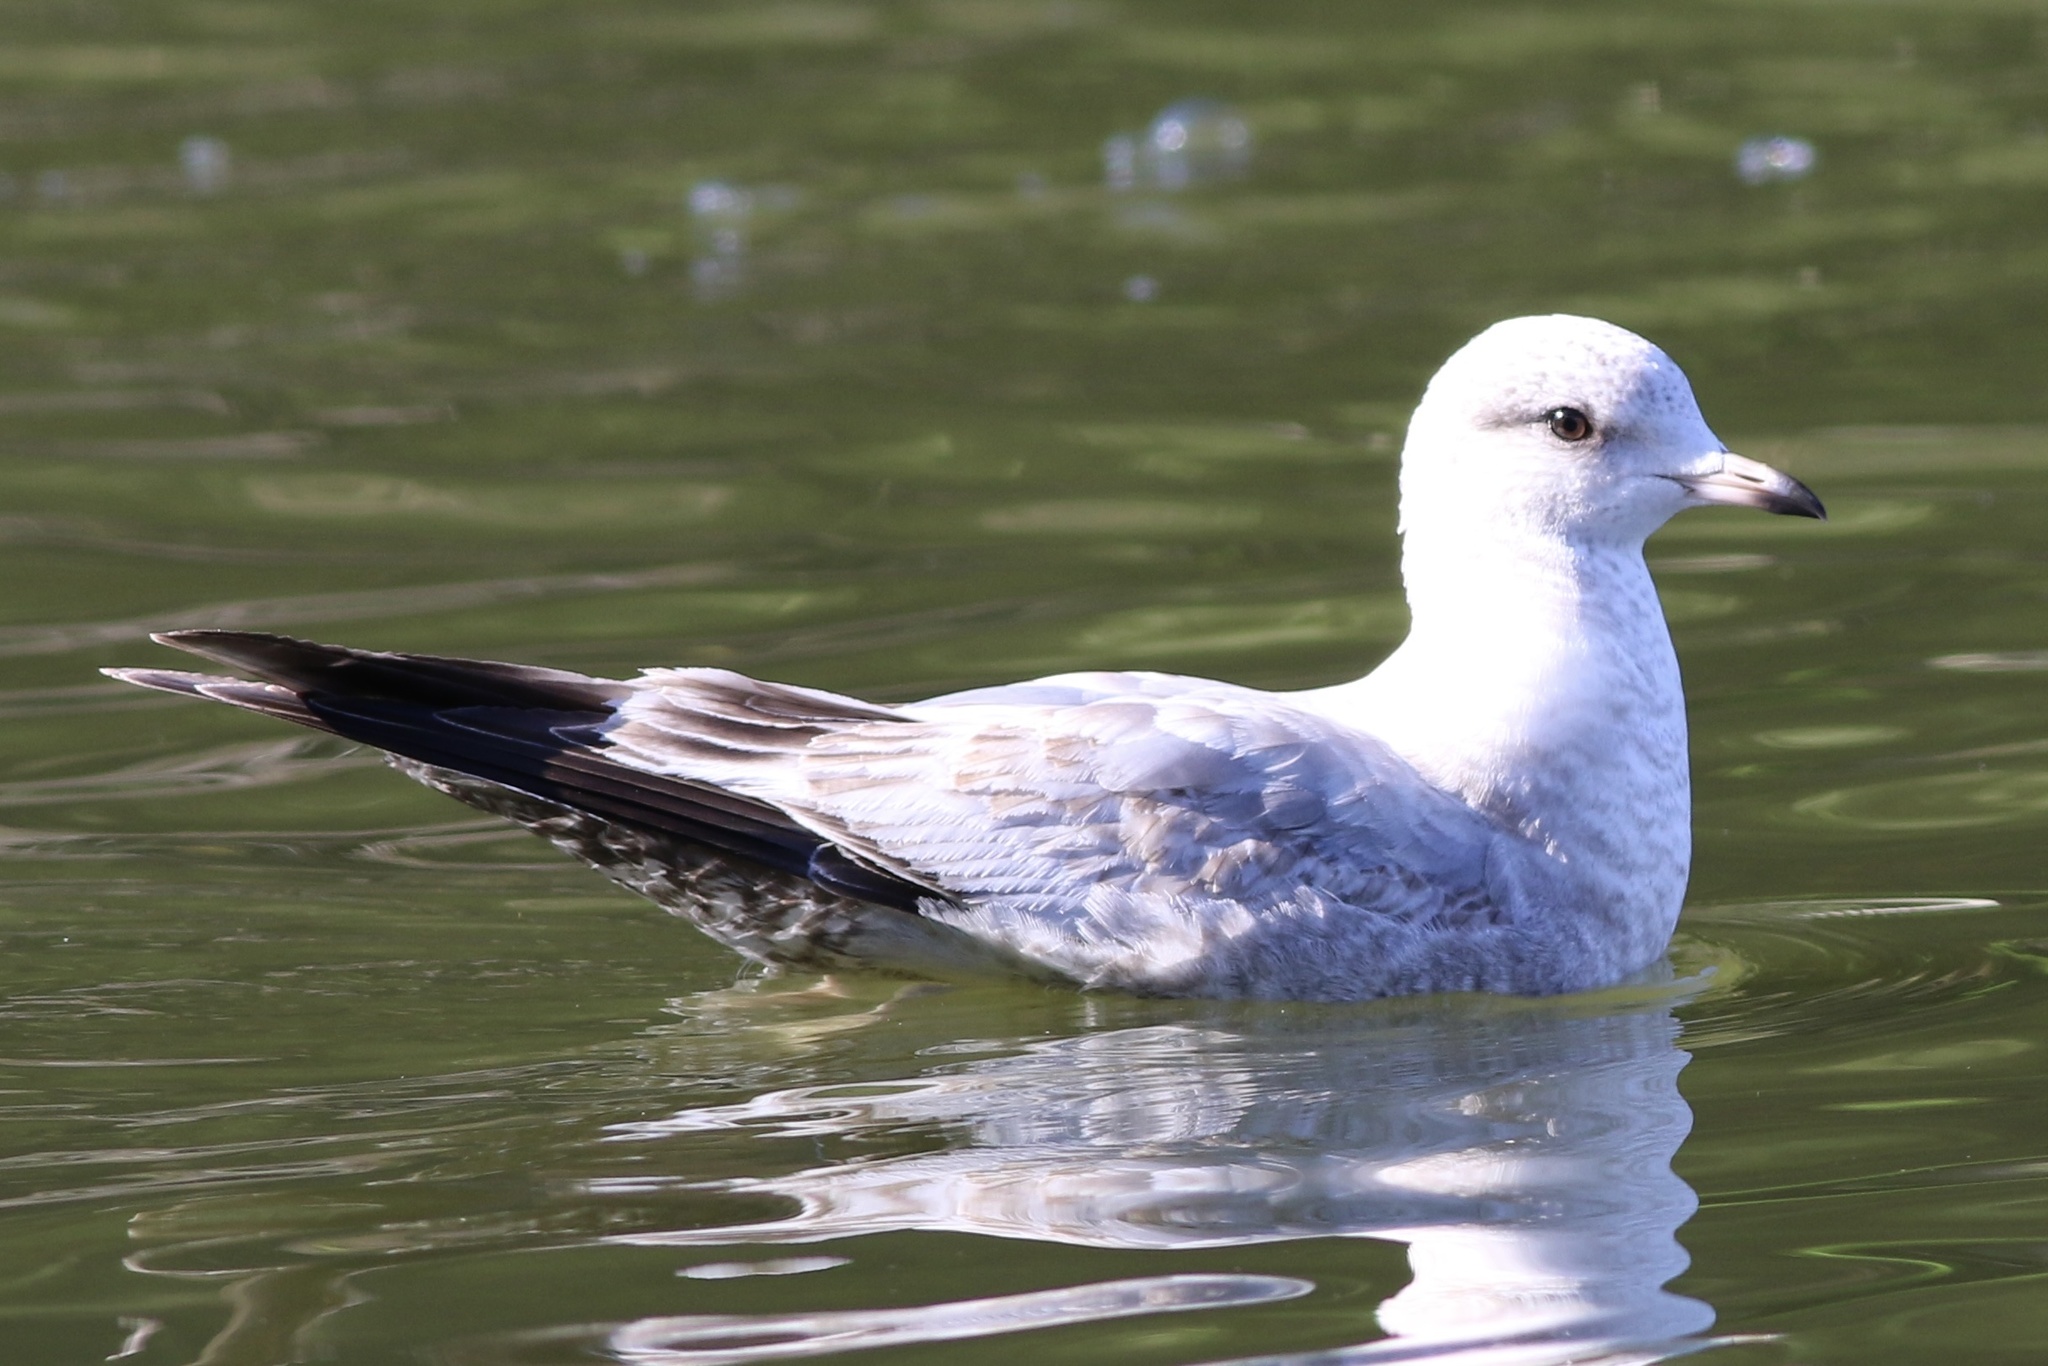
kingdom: Animalia
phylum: Chordata
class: Aves
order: Charadriiformes
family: Laridae
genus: Larus
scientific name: Larus brachyrhynchus
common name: Short-billed gull
